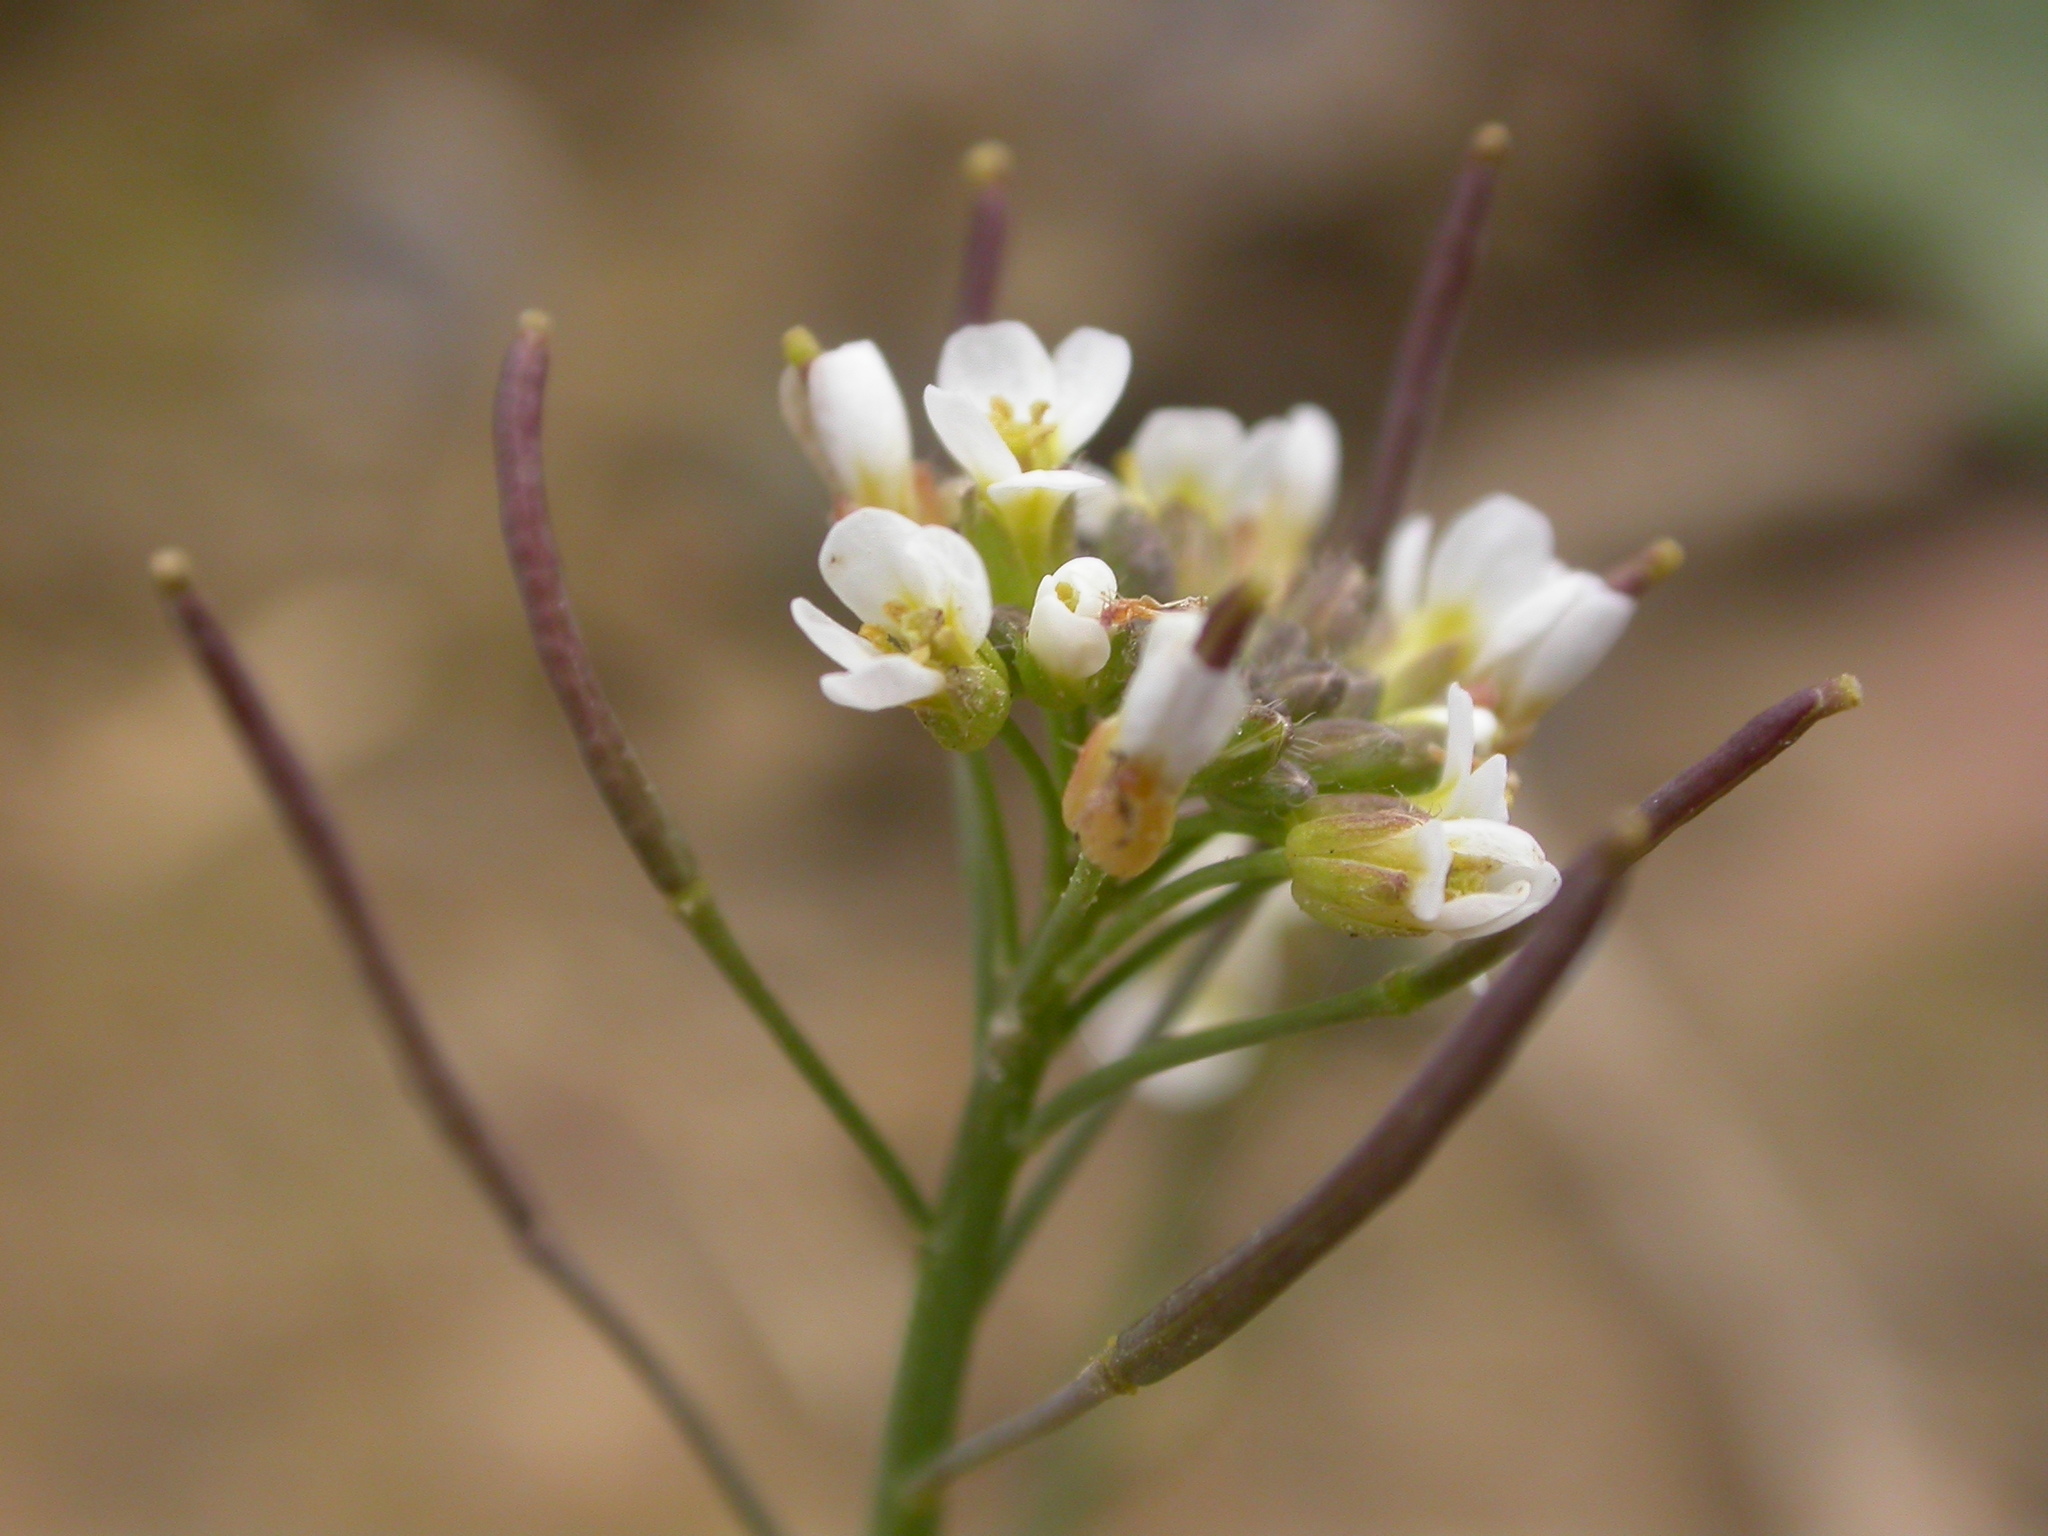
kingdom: Plantae
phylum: Tracheophyta
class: Magnoliopsida
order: Brassicales
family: Brassicaceae
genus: Arabidopsis
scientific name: Arabidopsis thaliana
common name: Thale cress
